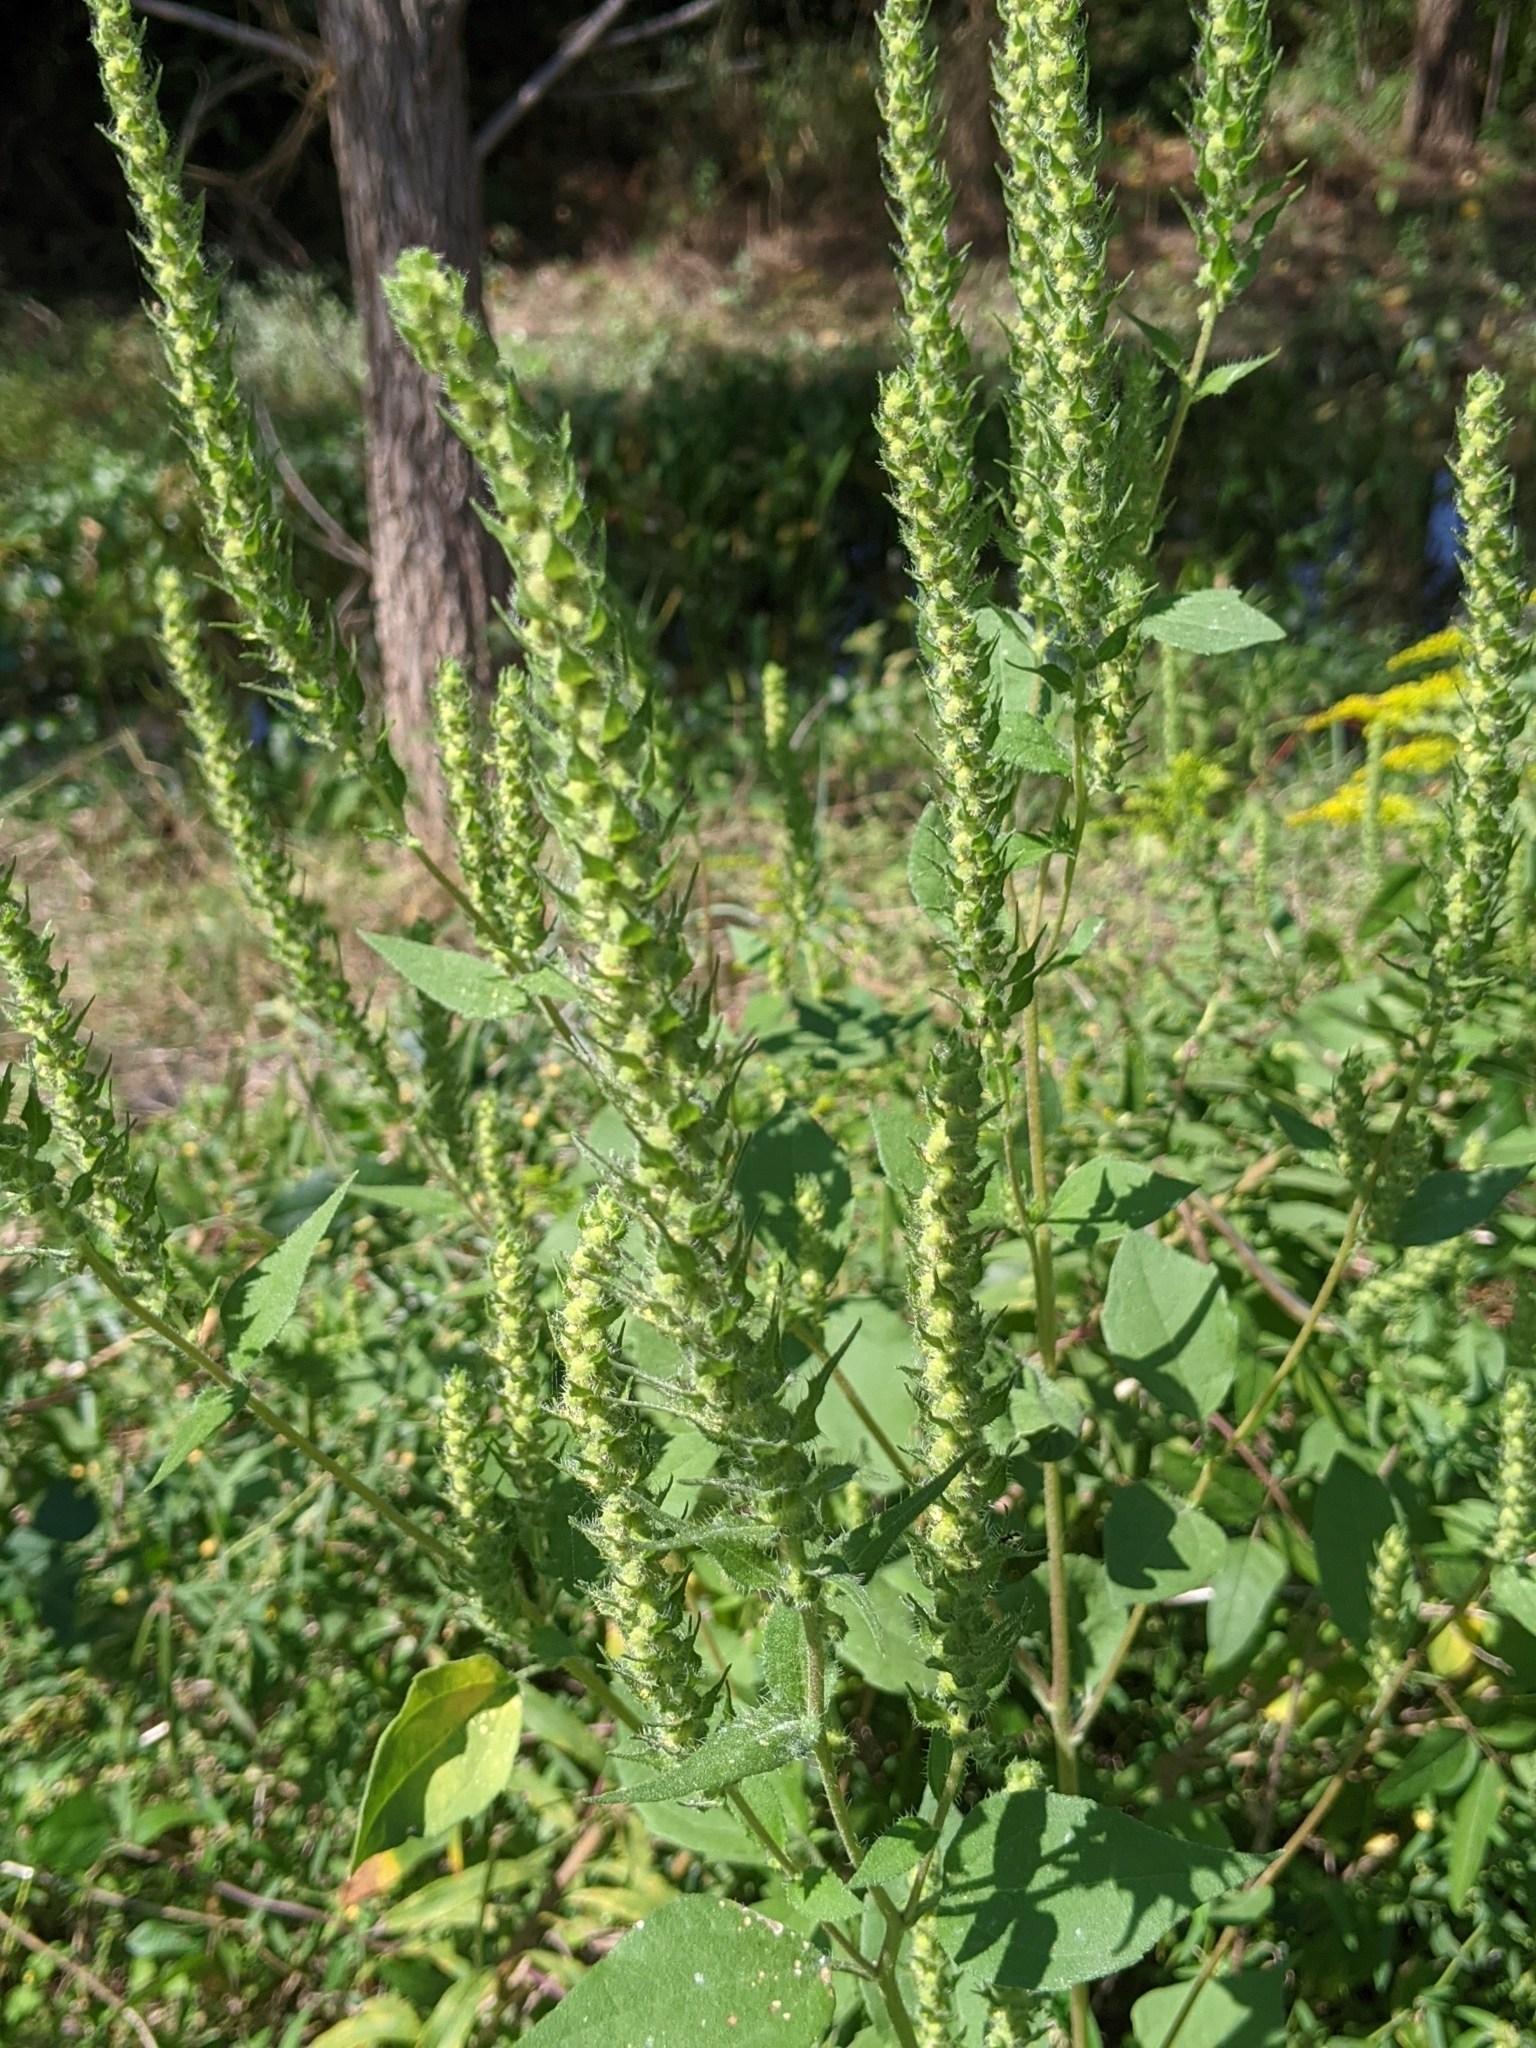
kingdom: Plantae
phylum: Tracheophyta
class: Magnoliopsida
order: Asterales
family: Asteraceae
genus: Iva
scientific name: Iva annua
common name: Marsh-elder
